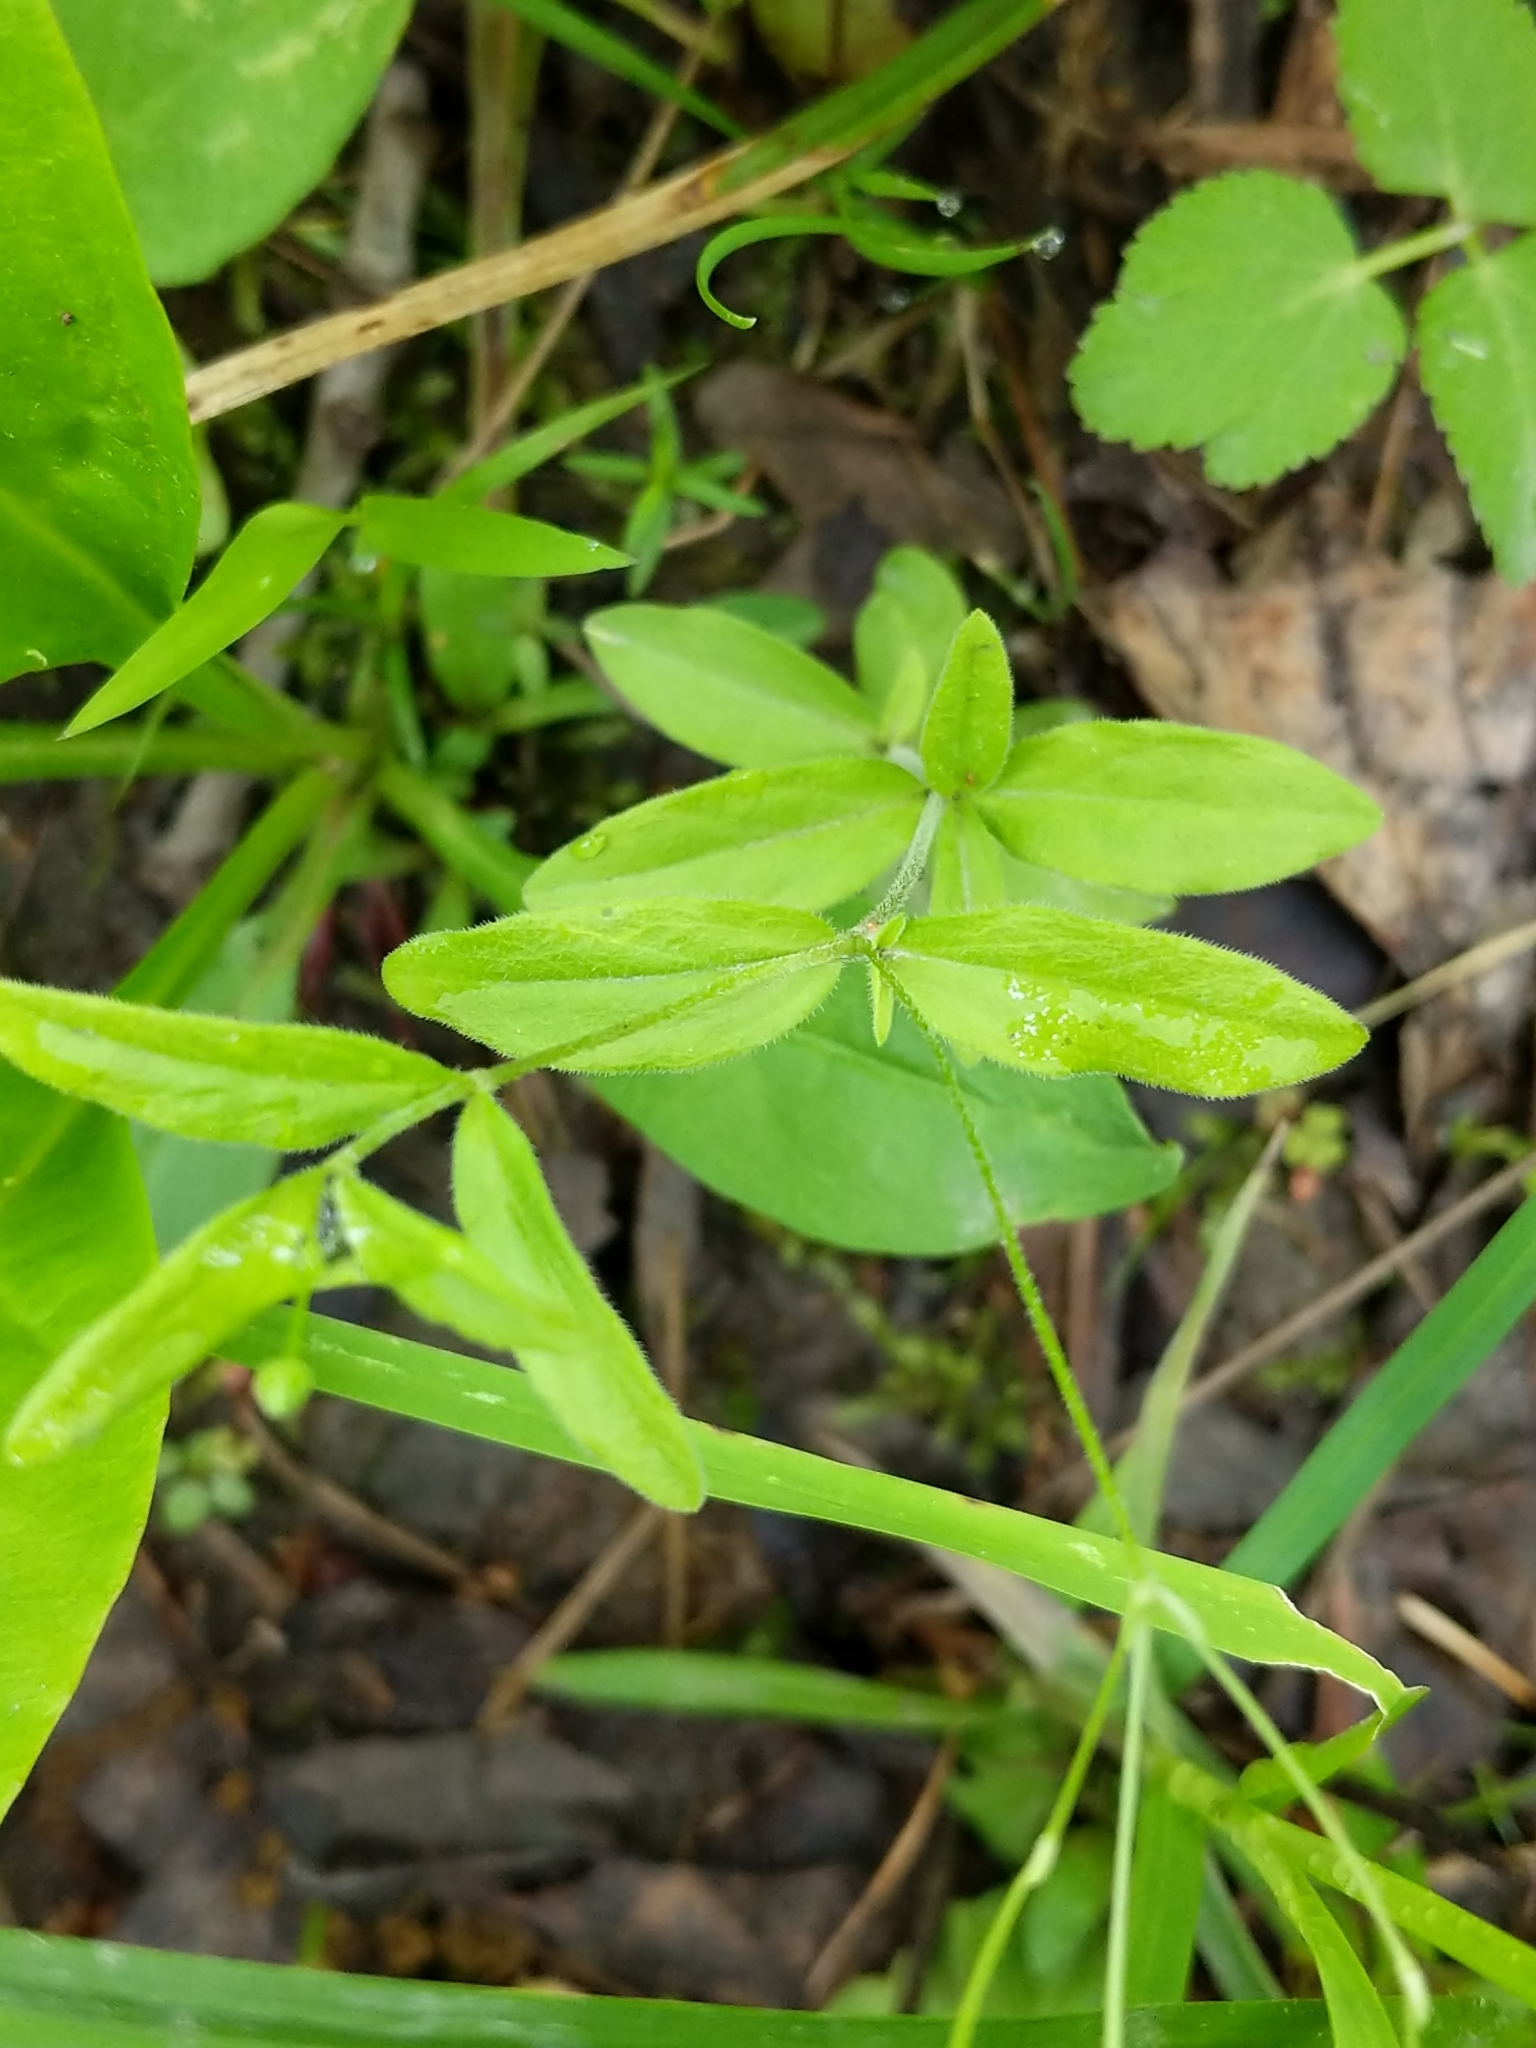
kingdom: Plantae
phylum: Tracheophyta
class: Magnoliopsida
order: Caryophyllales
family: Caryophyllaceae
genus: Moehringia
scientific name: Moehringia lateriflora
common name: Blunt-leaved sandwort
